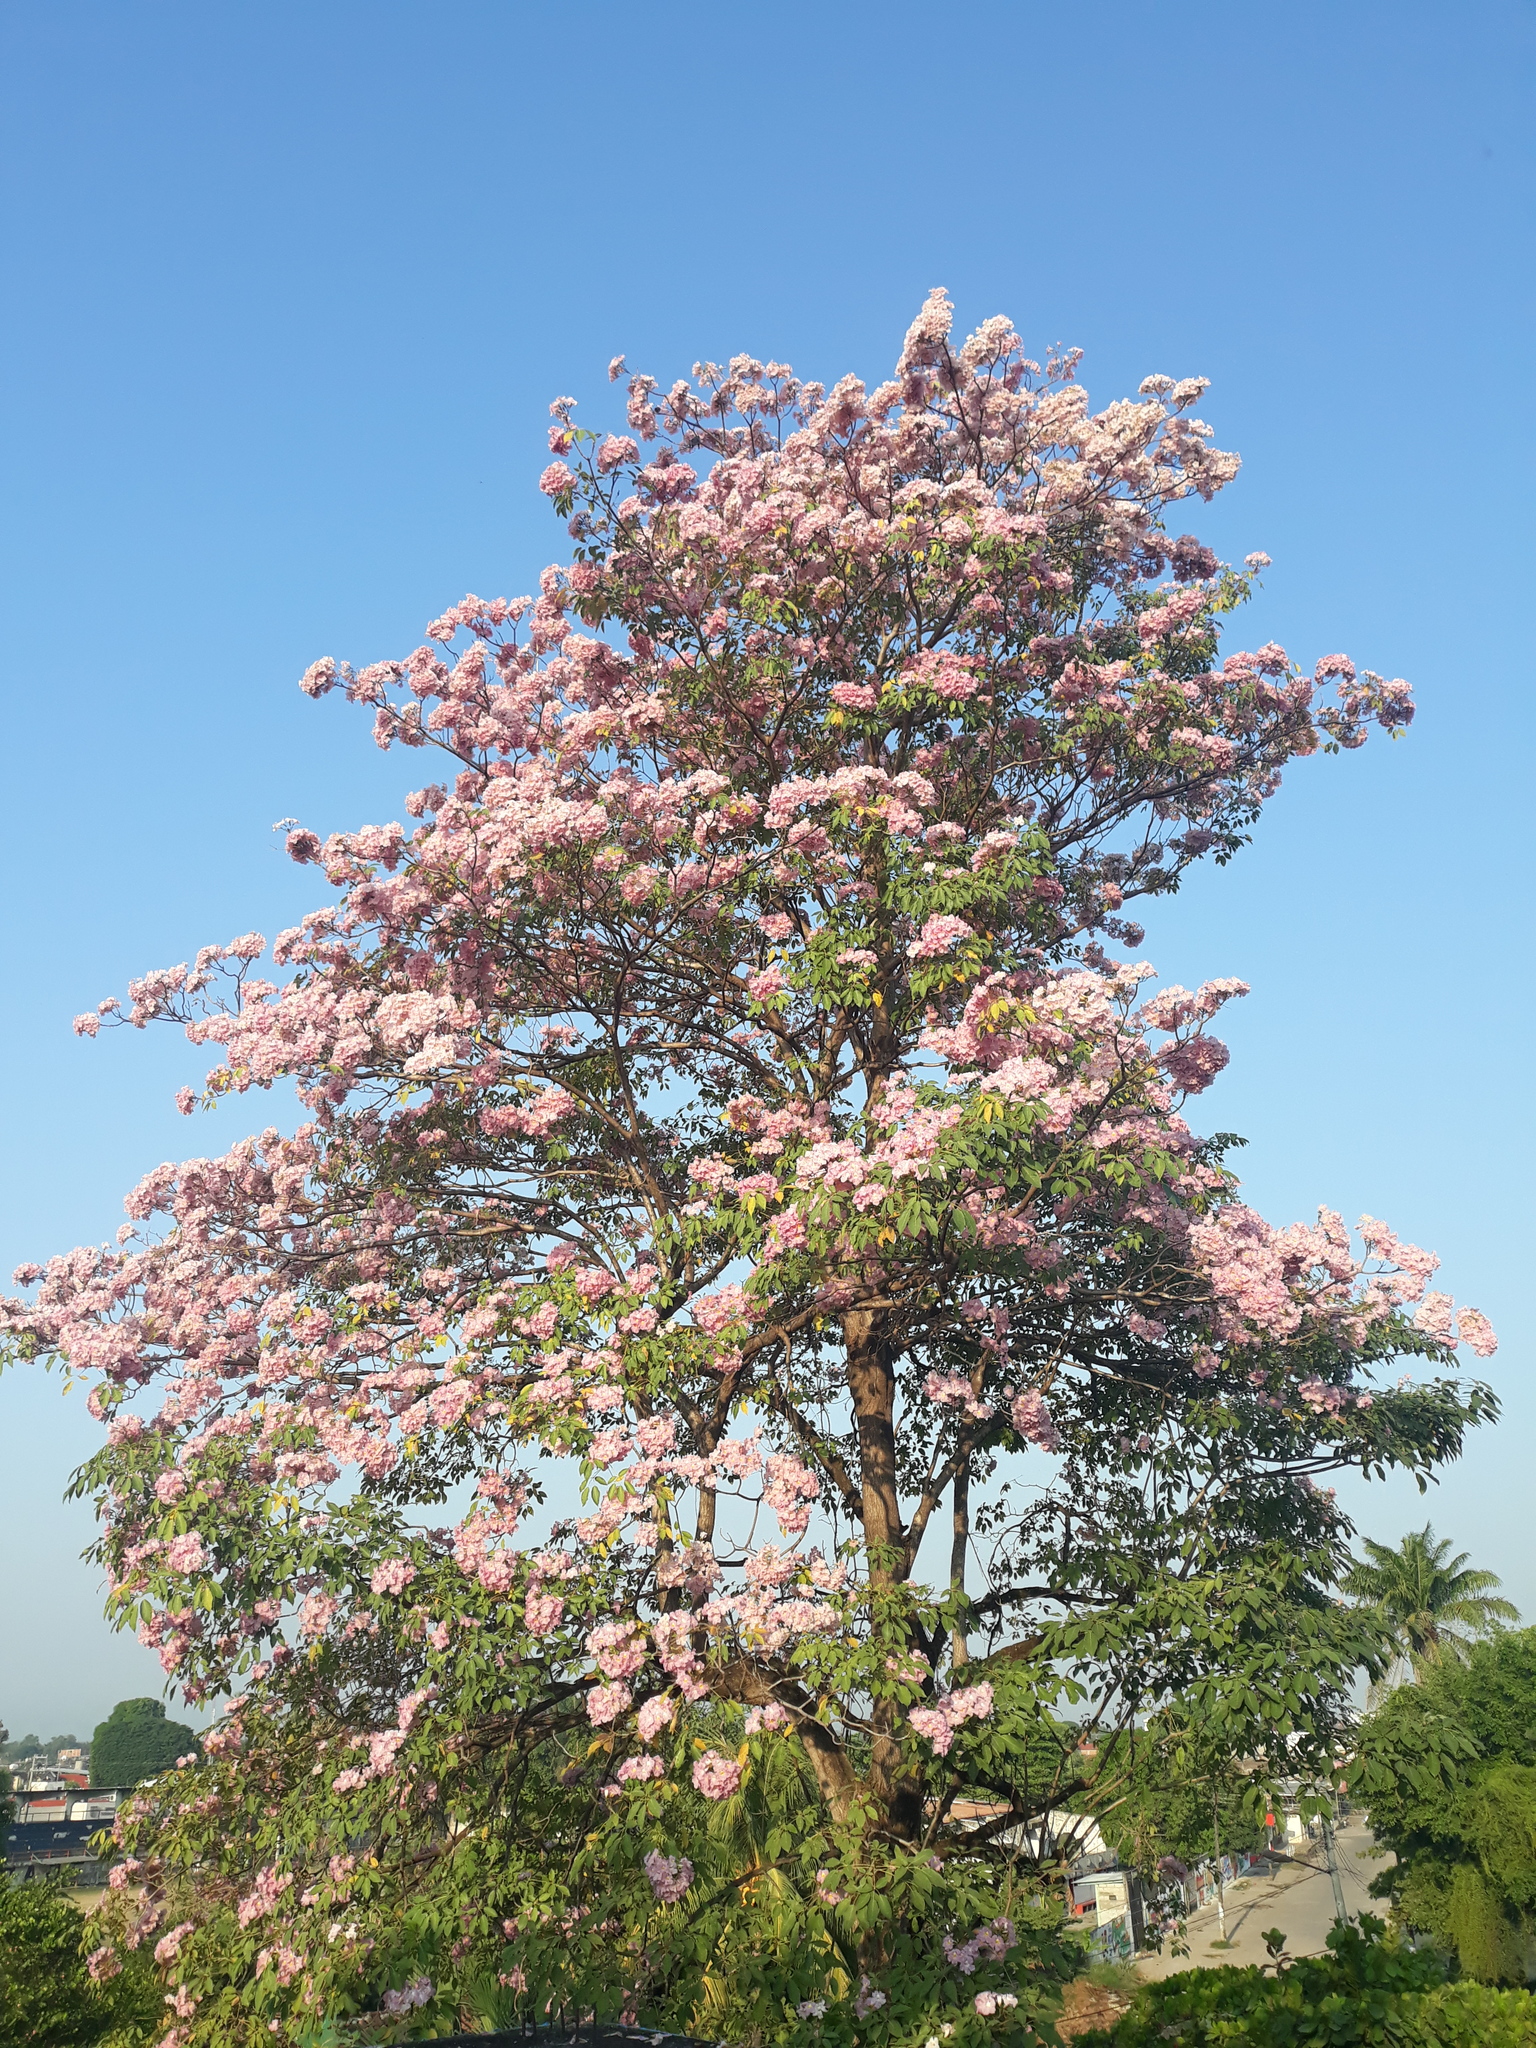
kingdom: Plantae
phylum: Tracheophyta
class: Magnoliopsida
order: Lamiales
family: Bignoniaceae
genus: Tabebuia
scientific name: Tabebuia rosea
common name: Pink poui
